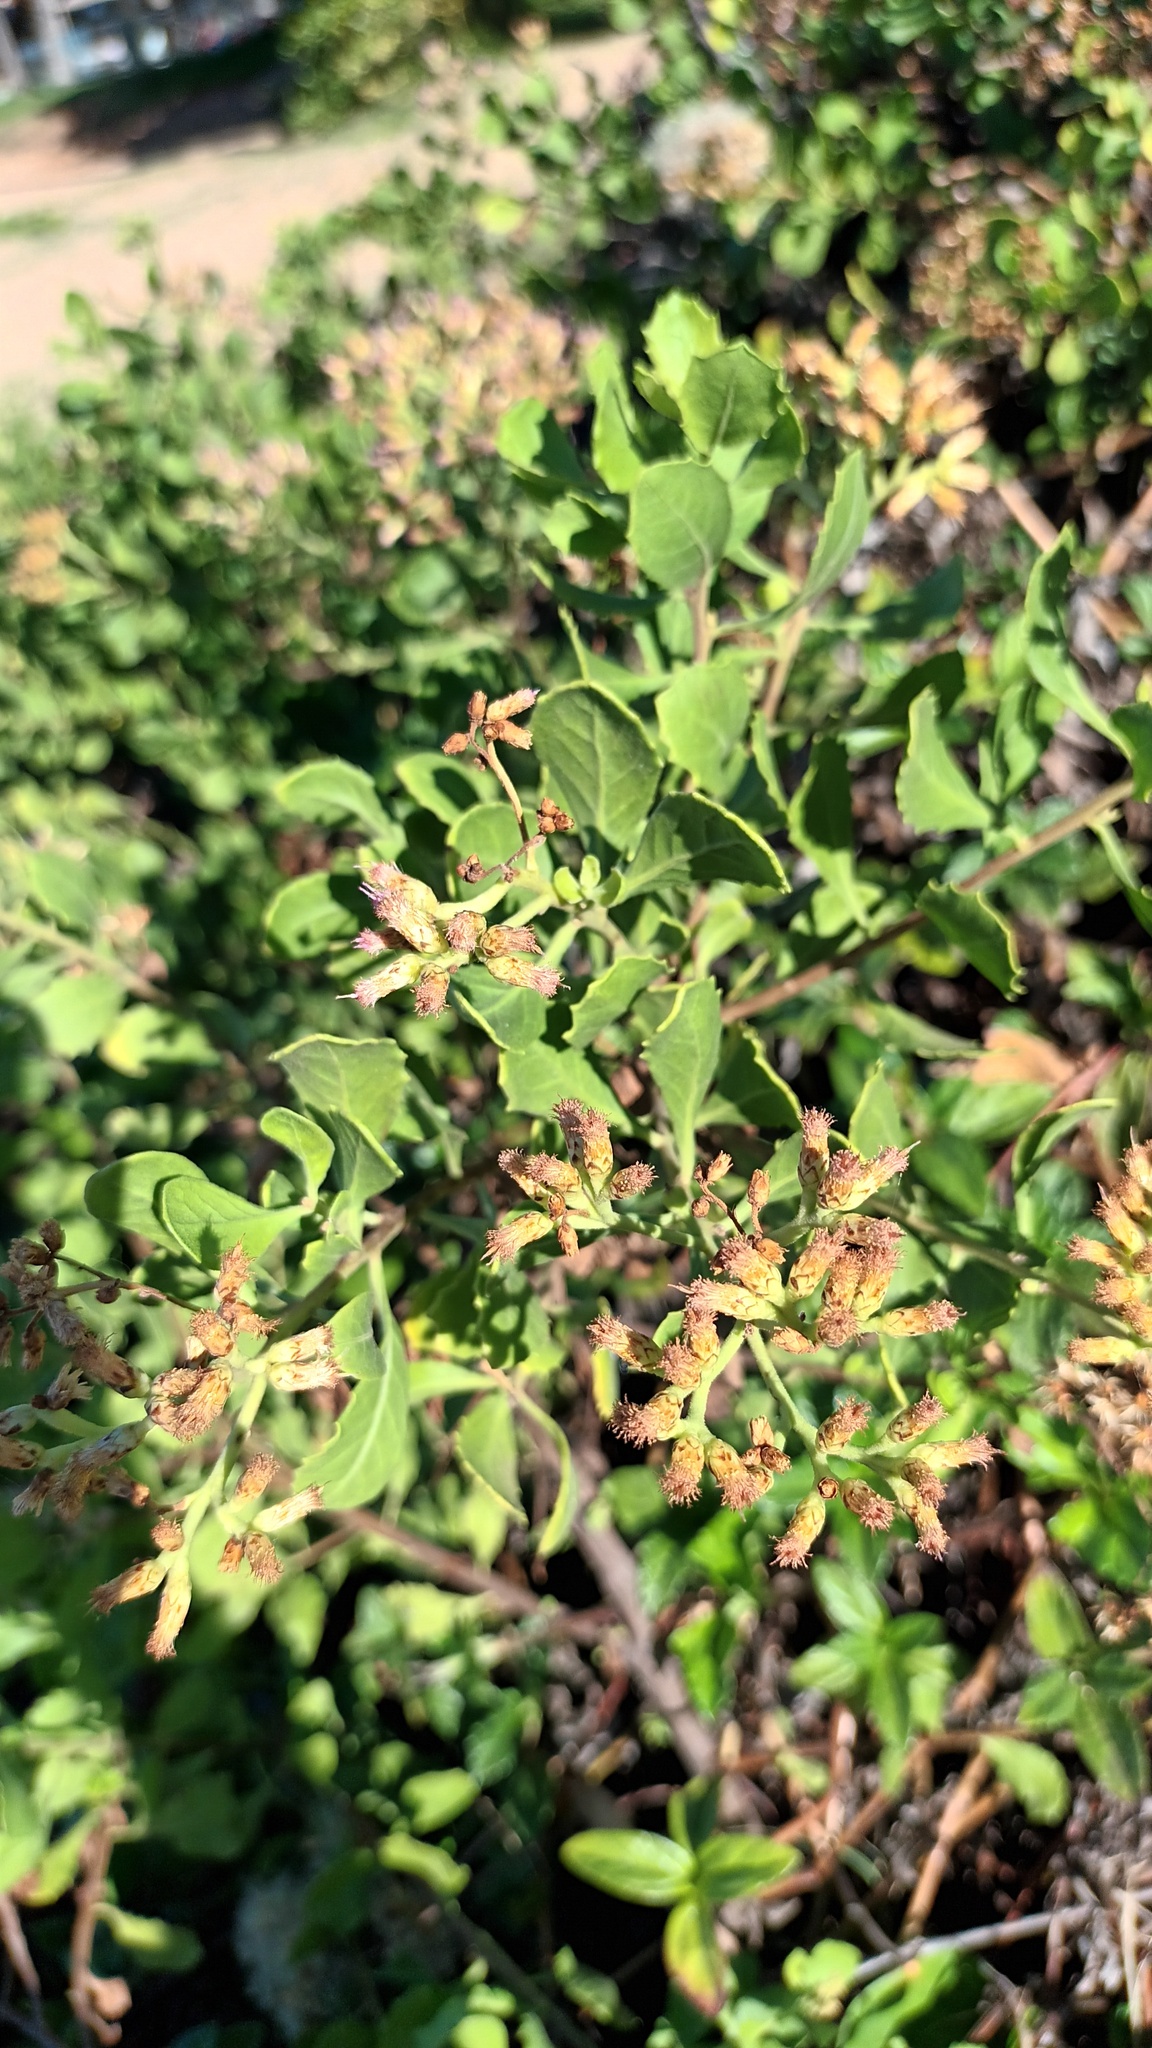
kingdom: Plantae
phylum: Tracheophyta
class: Magnoliopsida
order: Asterales
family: Asteraceae
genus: Pluchea
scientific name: Pluchea indica
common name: Indian fleabane
